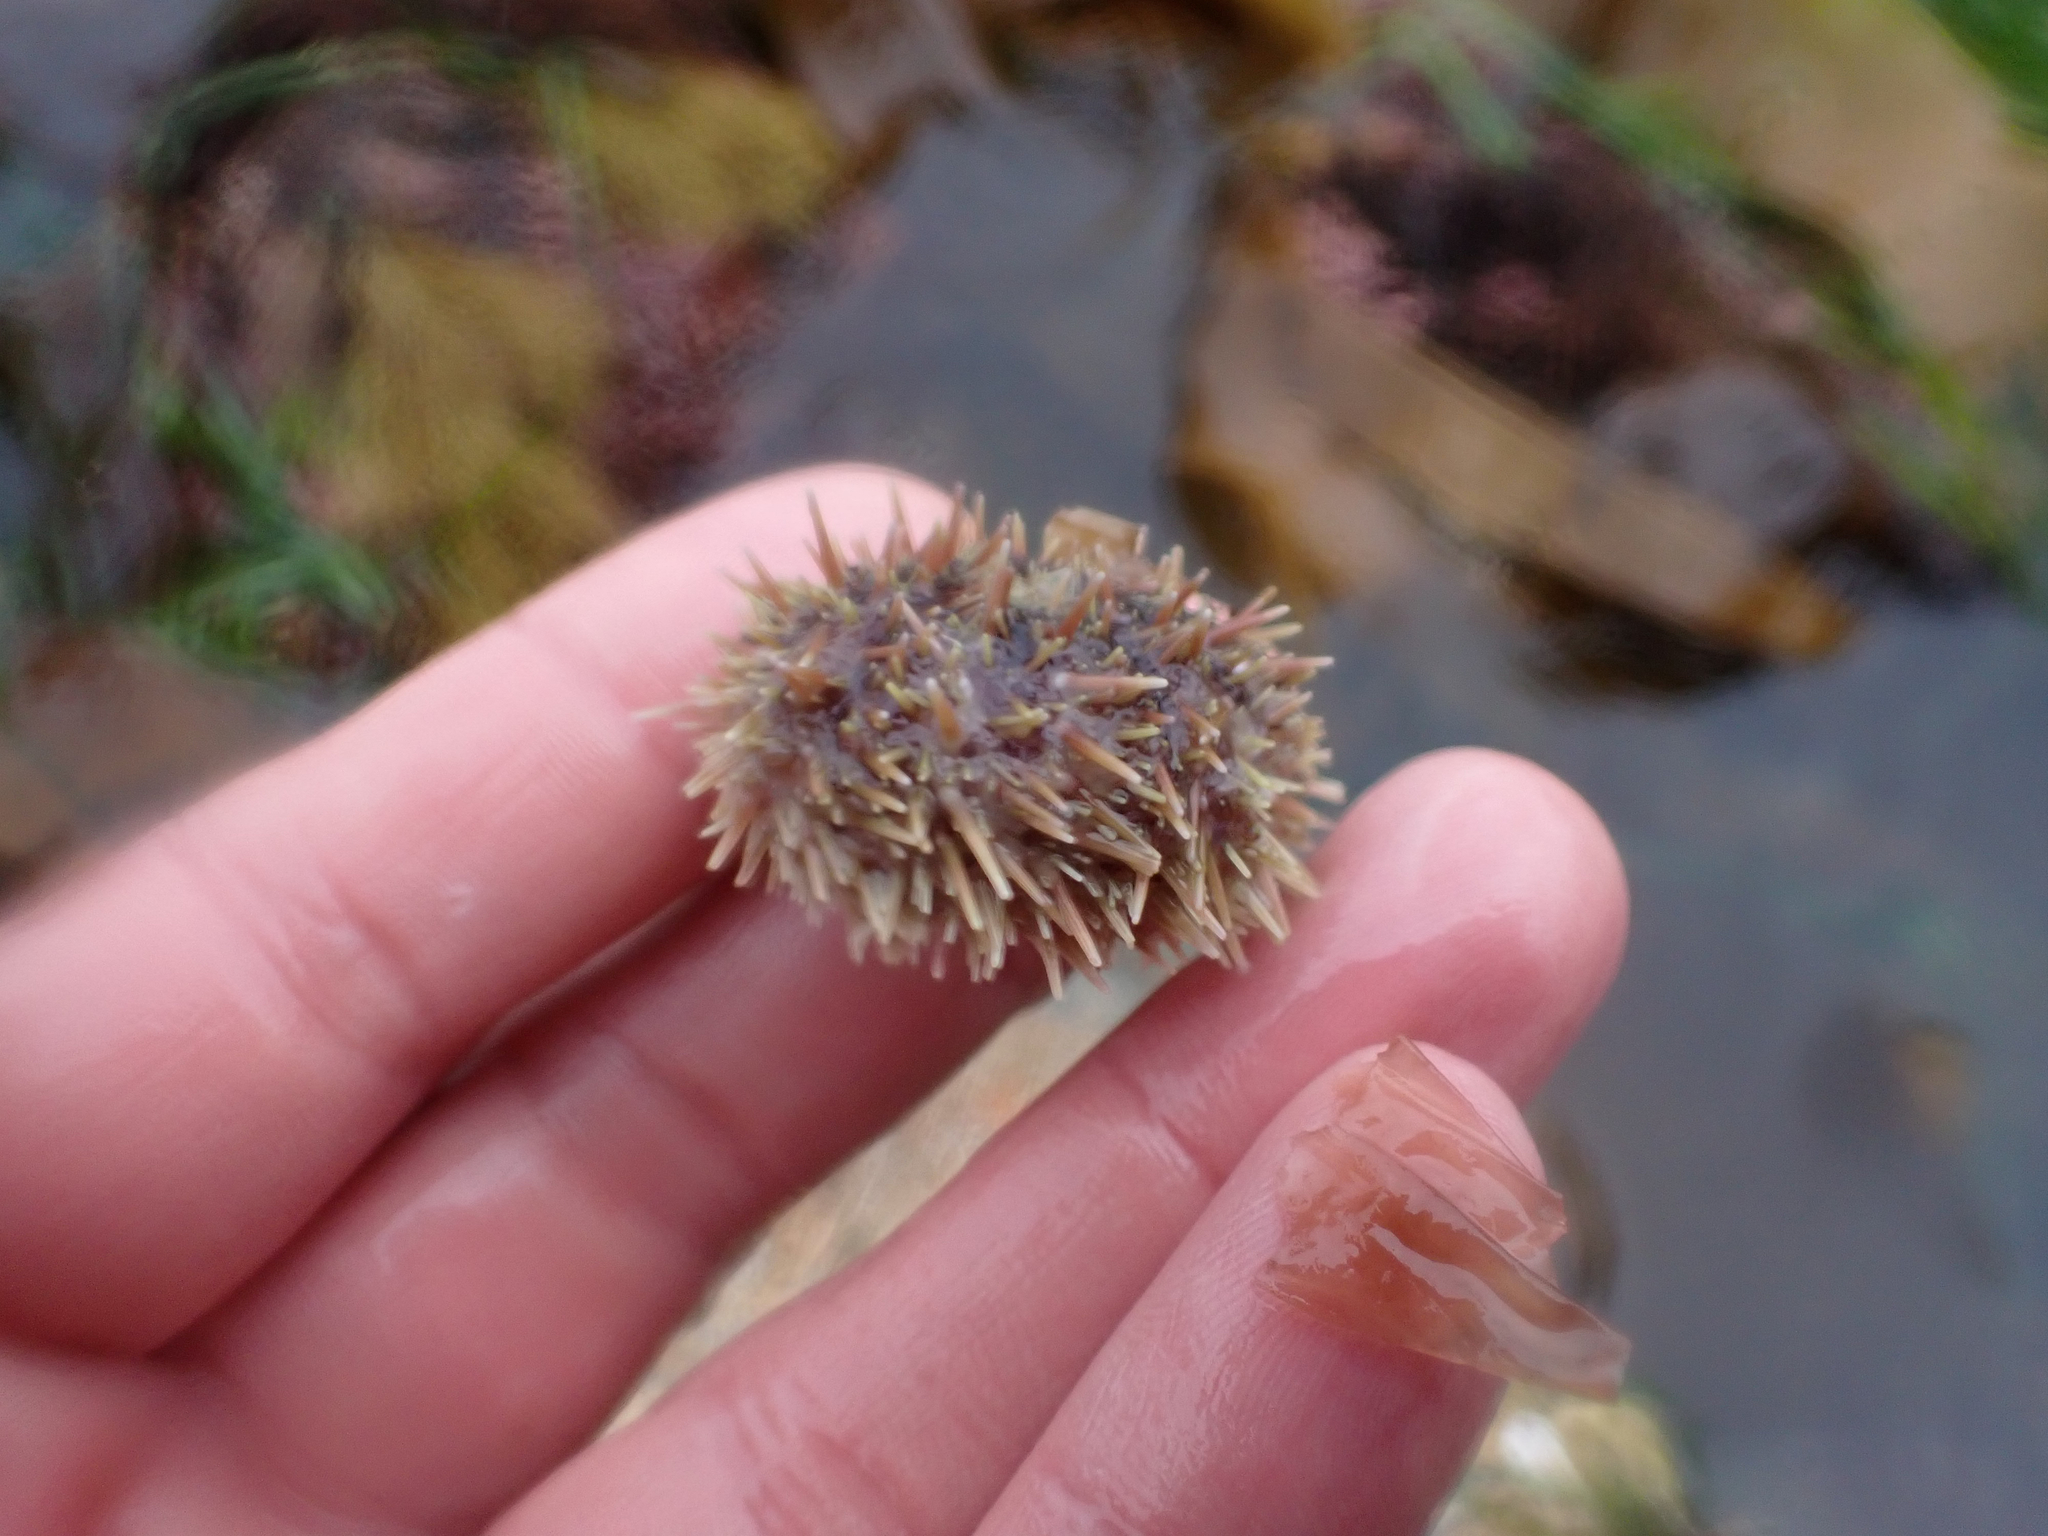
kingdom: Animalia
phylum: Echinodermata
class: Echinoidea
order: Camarodonta
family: Strongylocentrotidae
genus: Strongylocentrotus
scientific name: Strongylocentrotus droebachiensis
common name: Northern sea urchin
